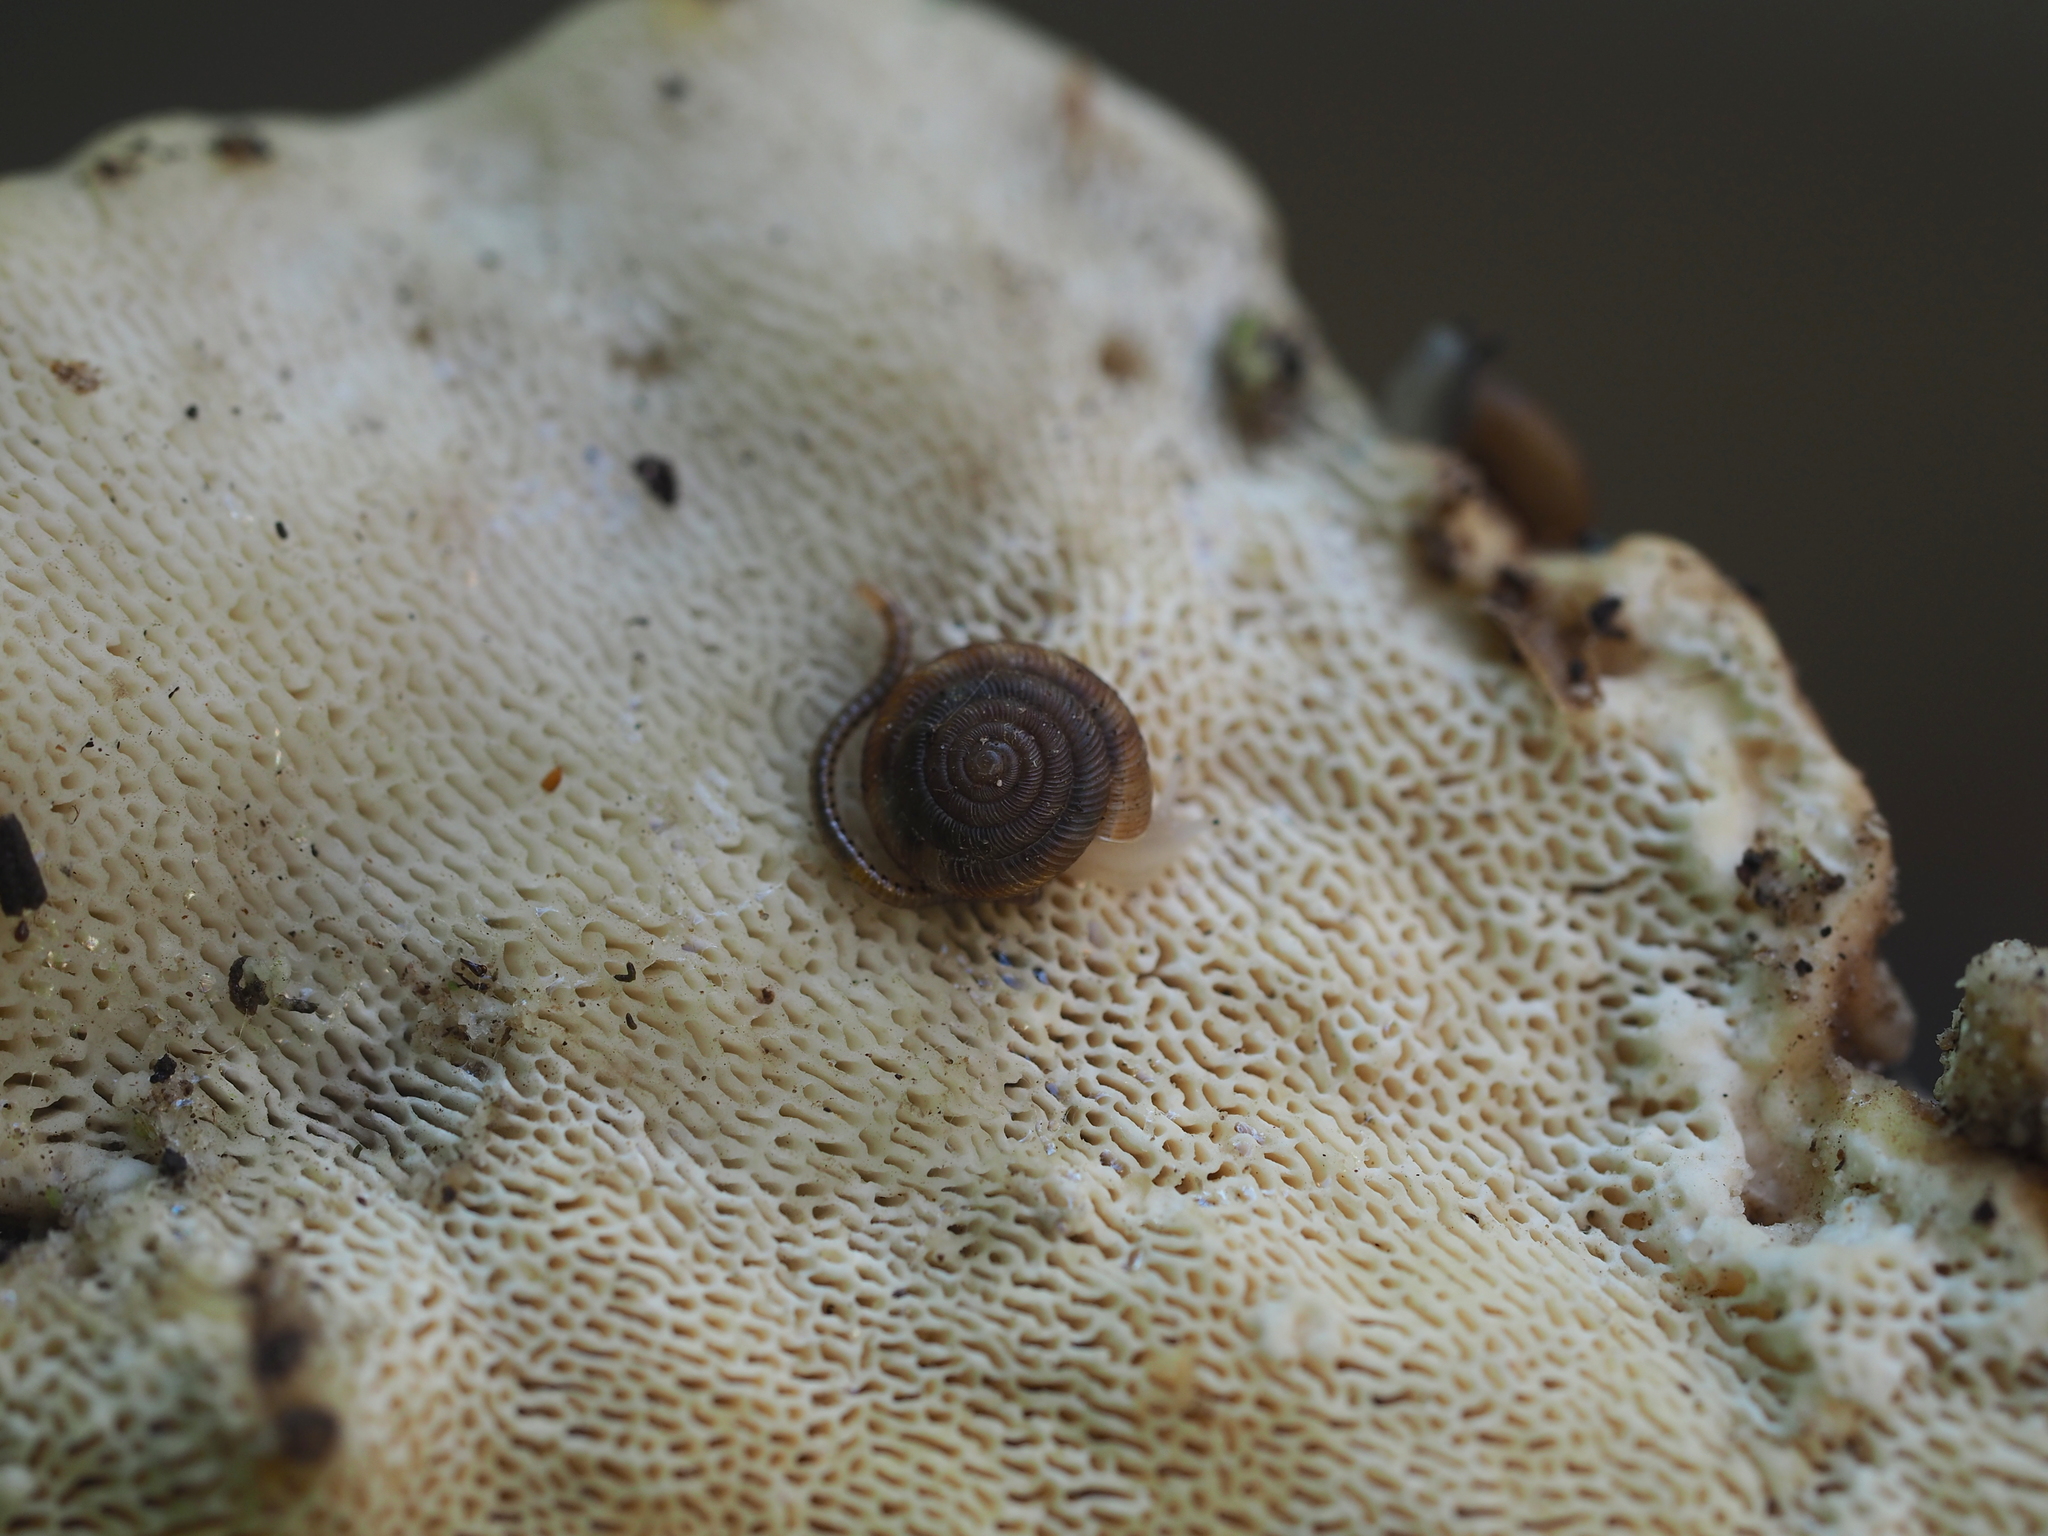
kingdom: Animalia
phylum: Mollusca
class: Gastropoda
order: Stylommatophora
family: Discidae
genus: Discus
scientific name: Discus rotundatus
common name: Rounded snail
